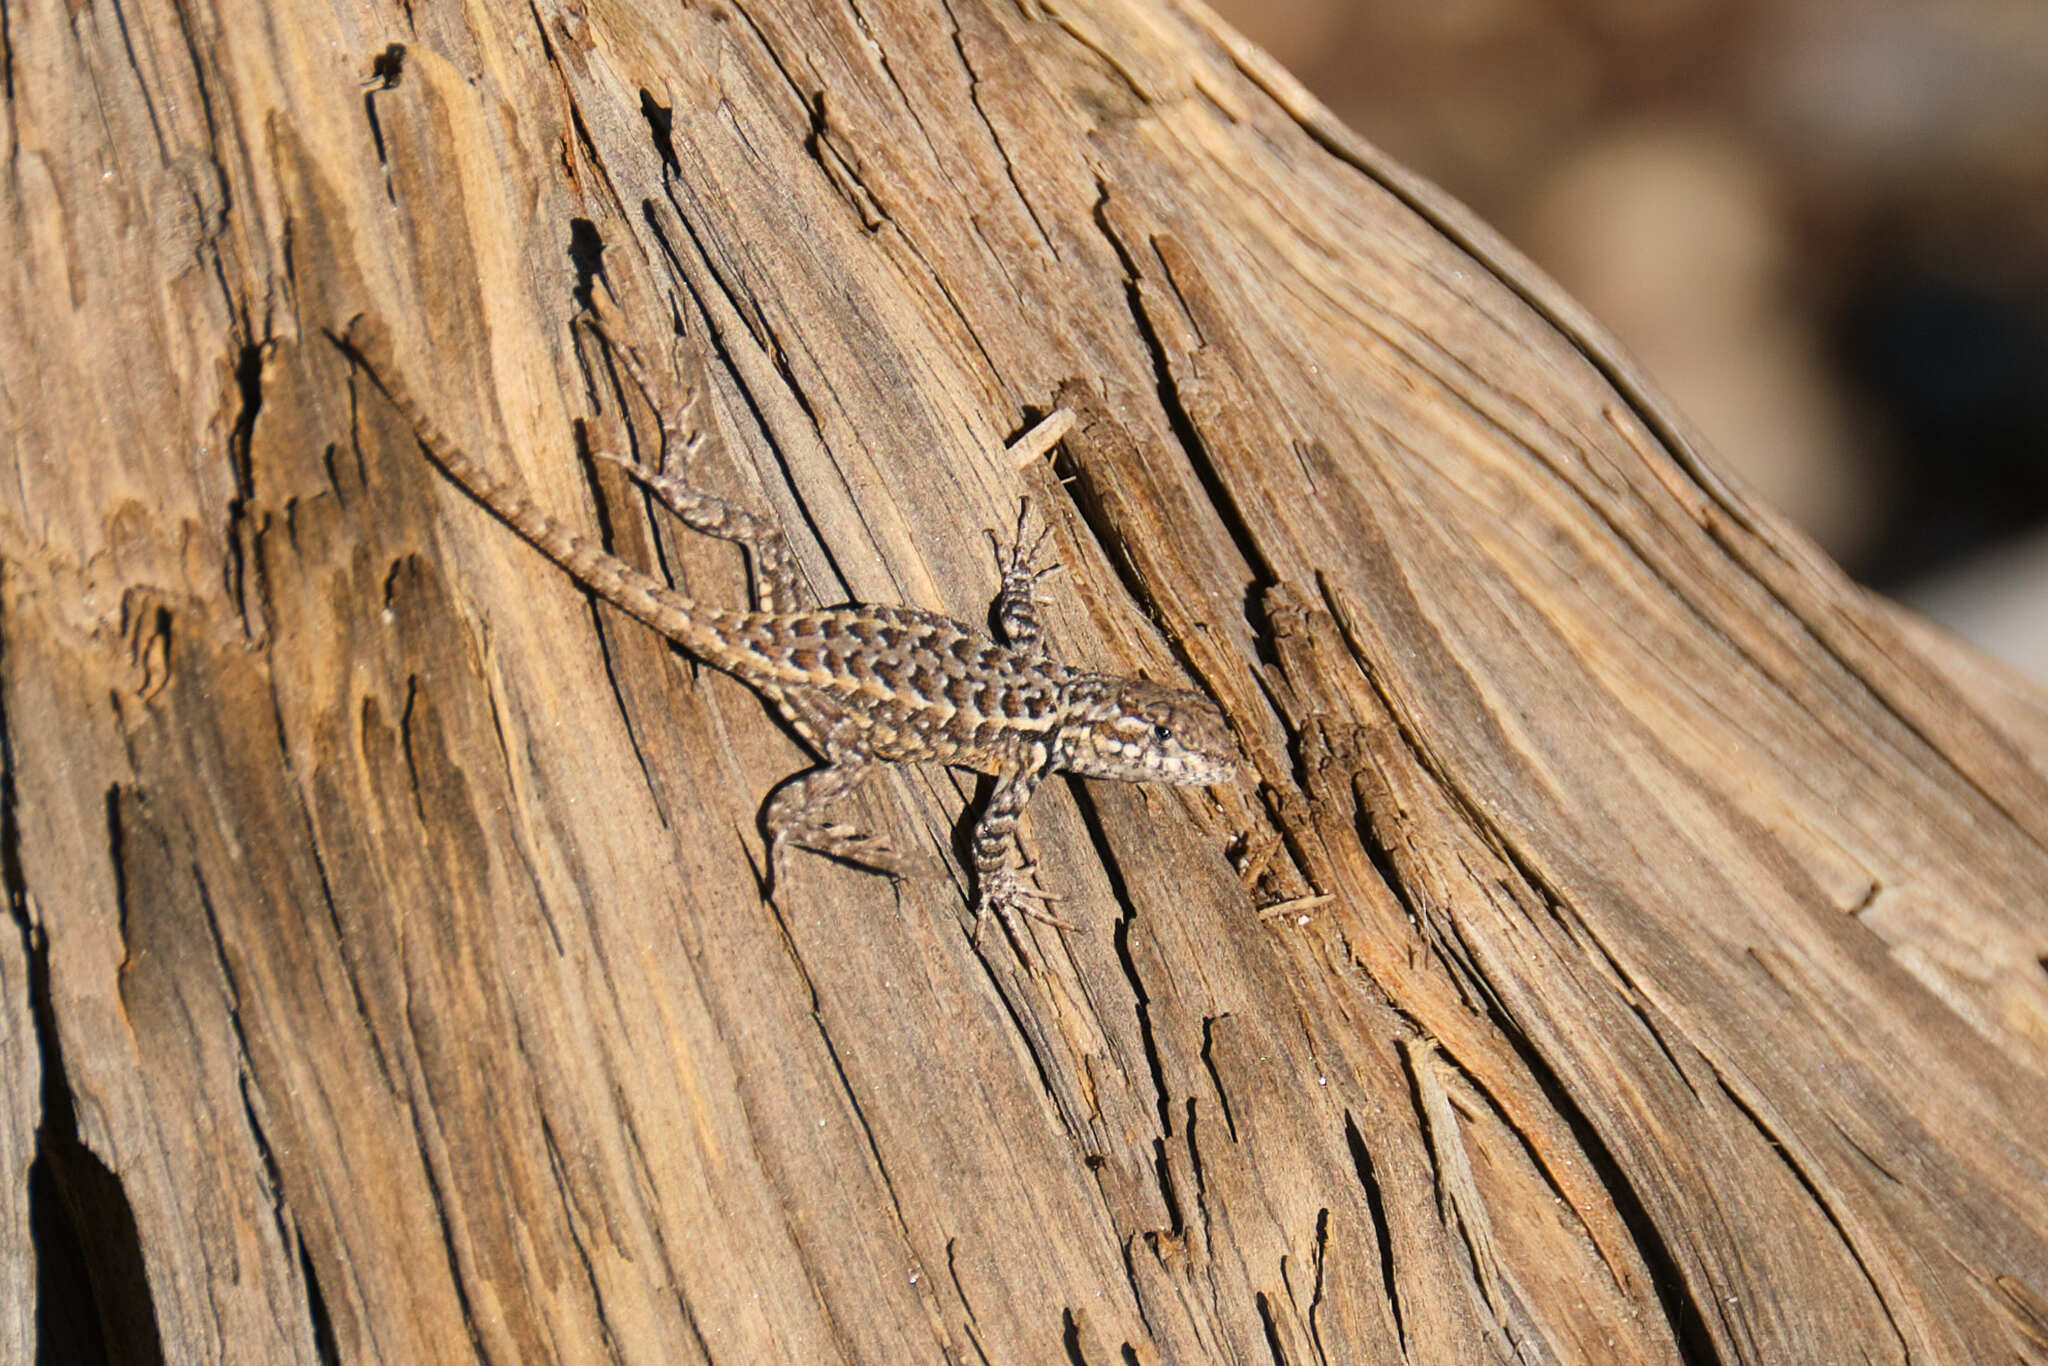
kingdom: Animalia
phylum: Chordata
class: Squamata
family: Phrynosomatidae
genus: Sceloporus
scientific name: Sceloporus graciosus
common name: Sagebrush lizard
